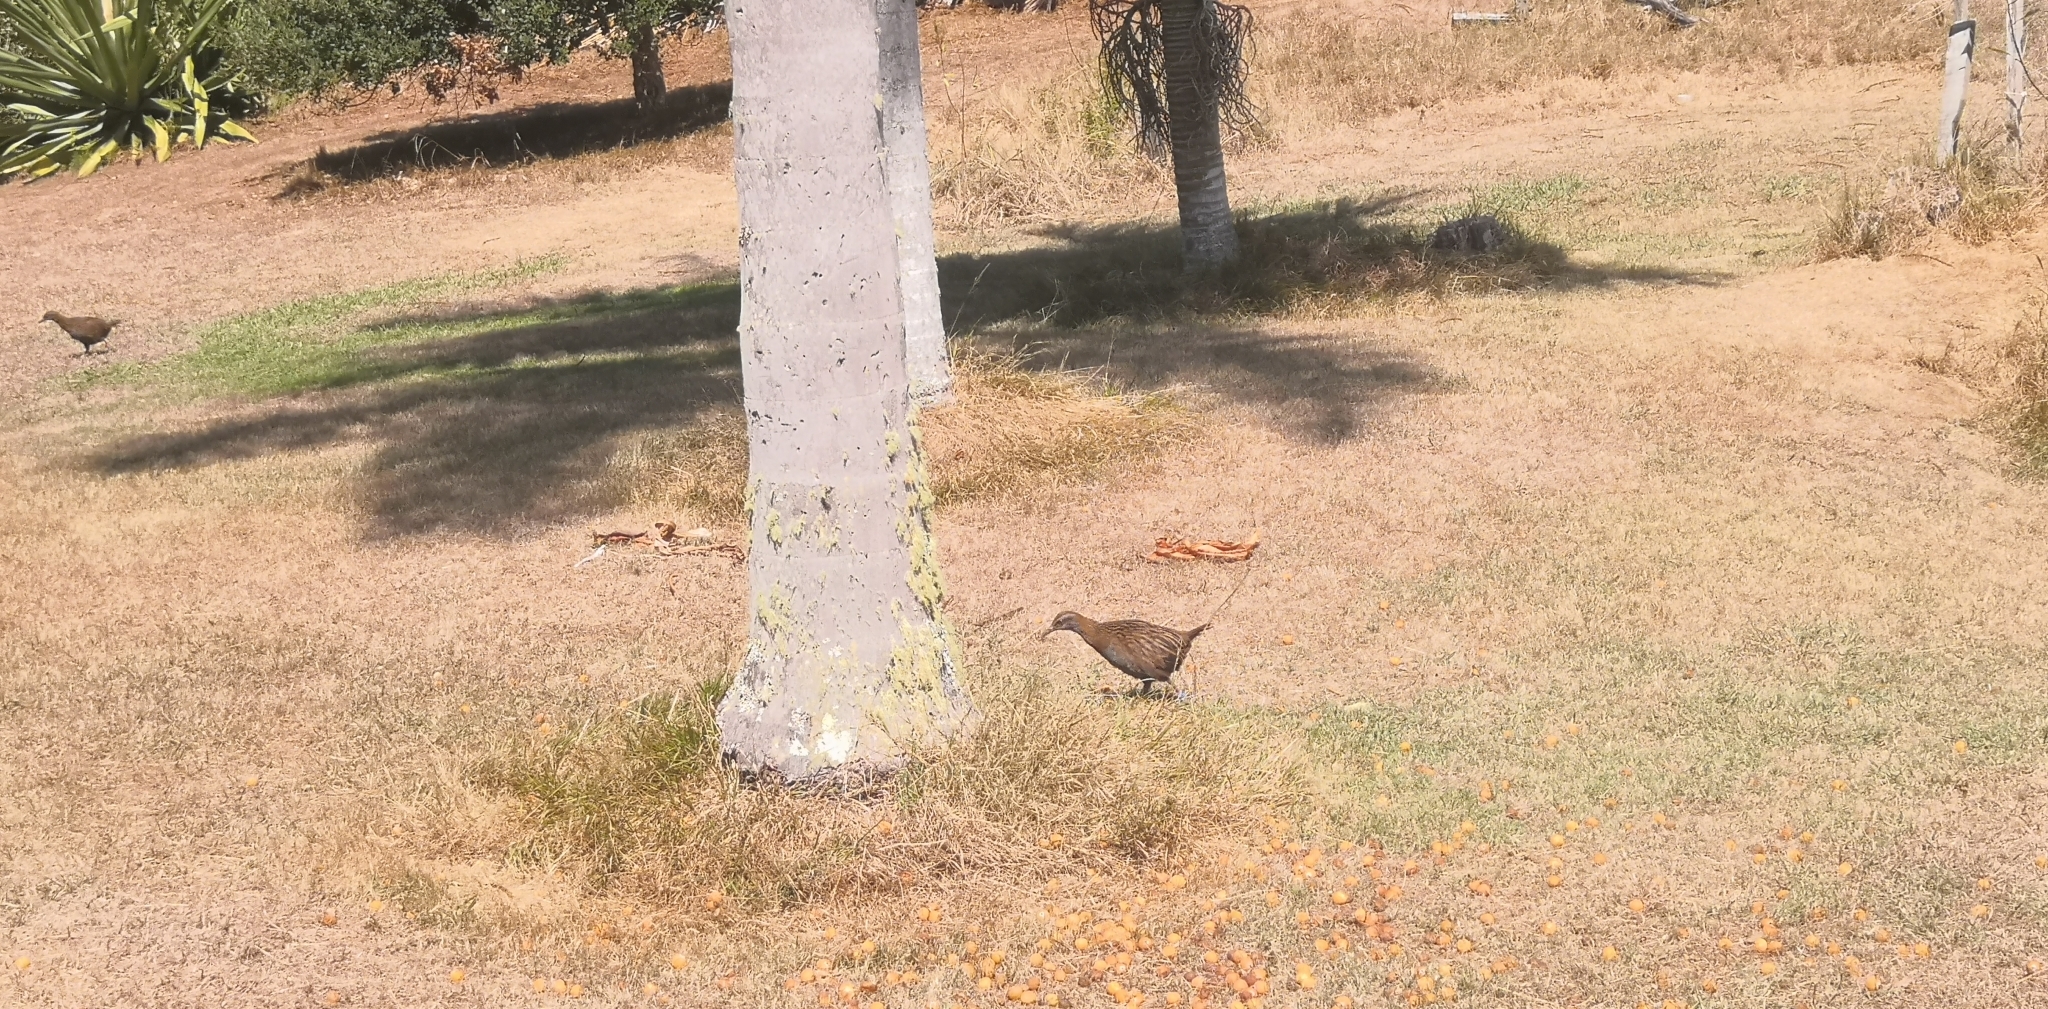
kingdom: Animalia
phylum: Chordata
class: Aves
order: Gruiformes
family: Rallidae
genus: Gallirallus
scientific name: Gallirallus australis
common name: Weka
